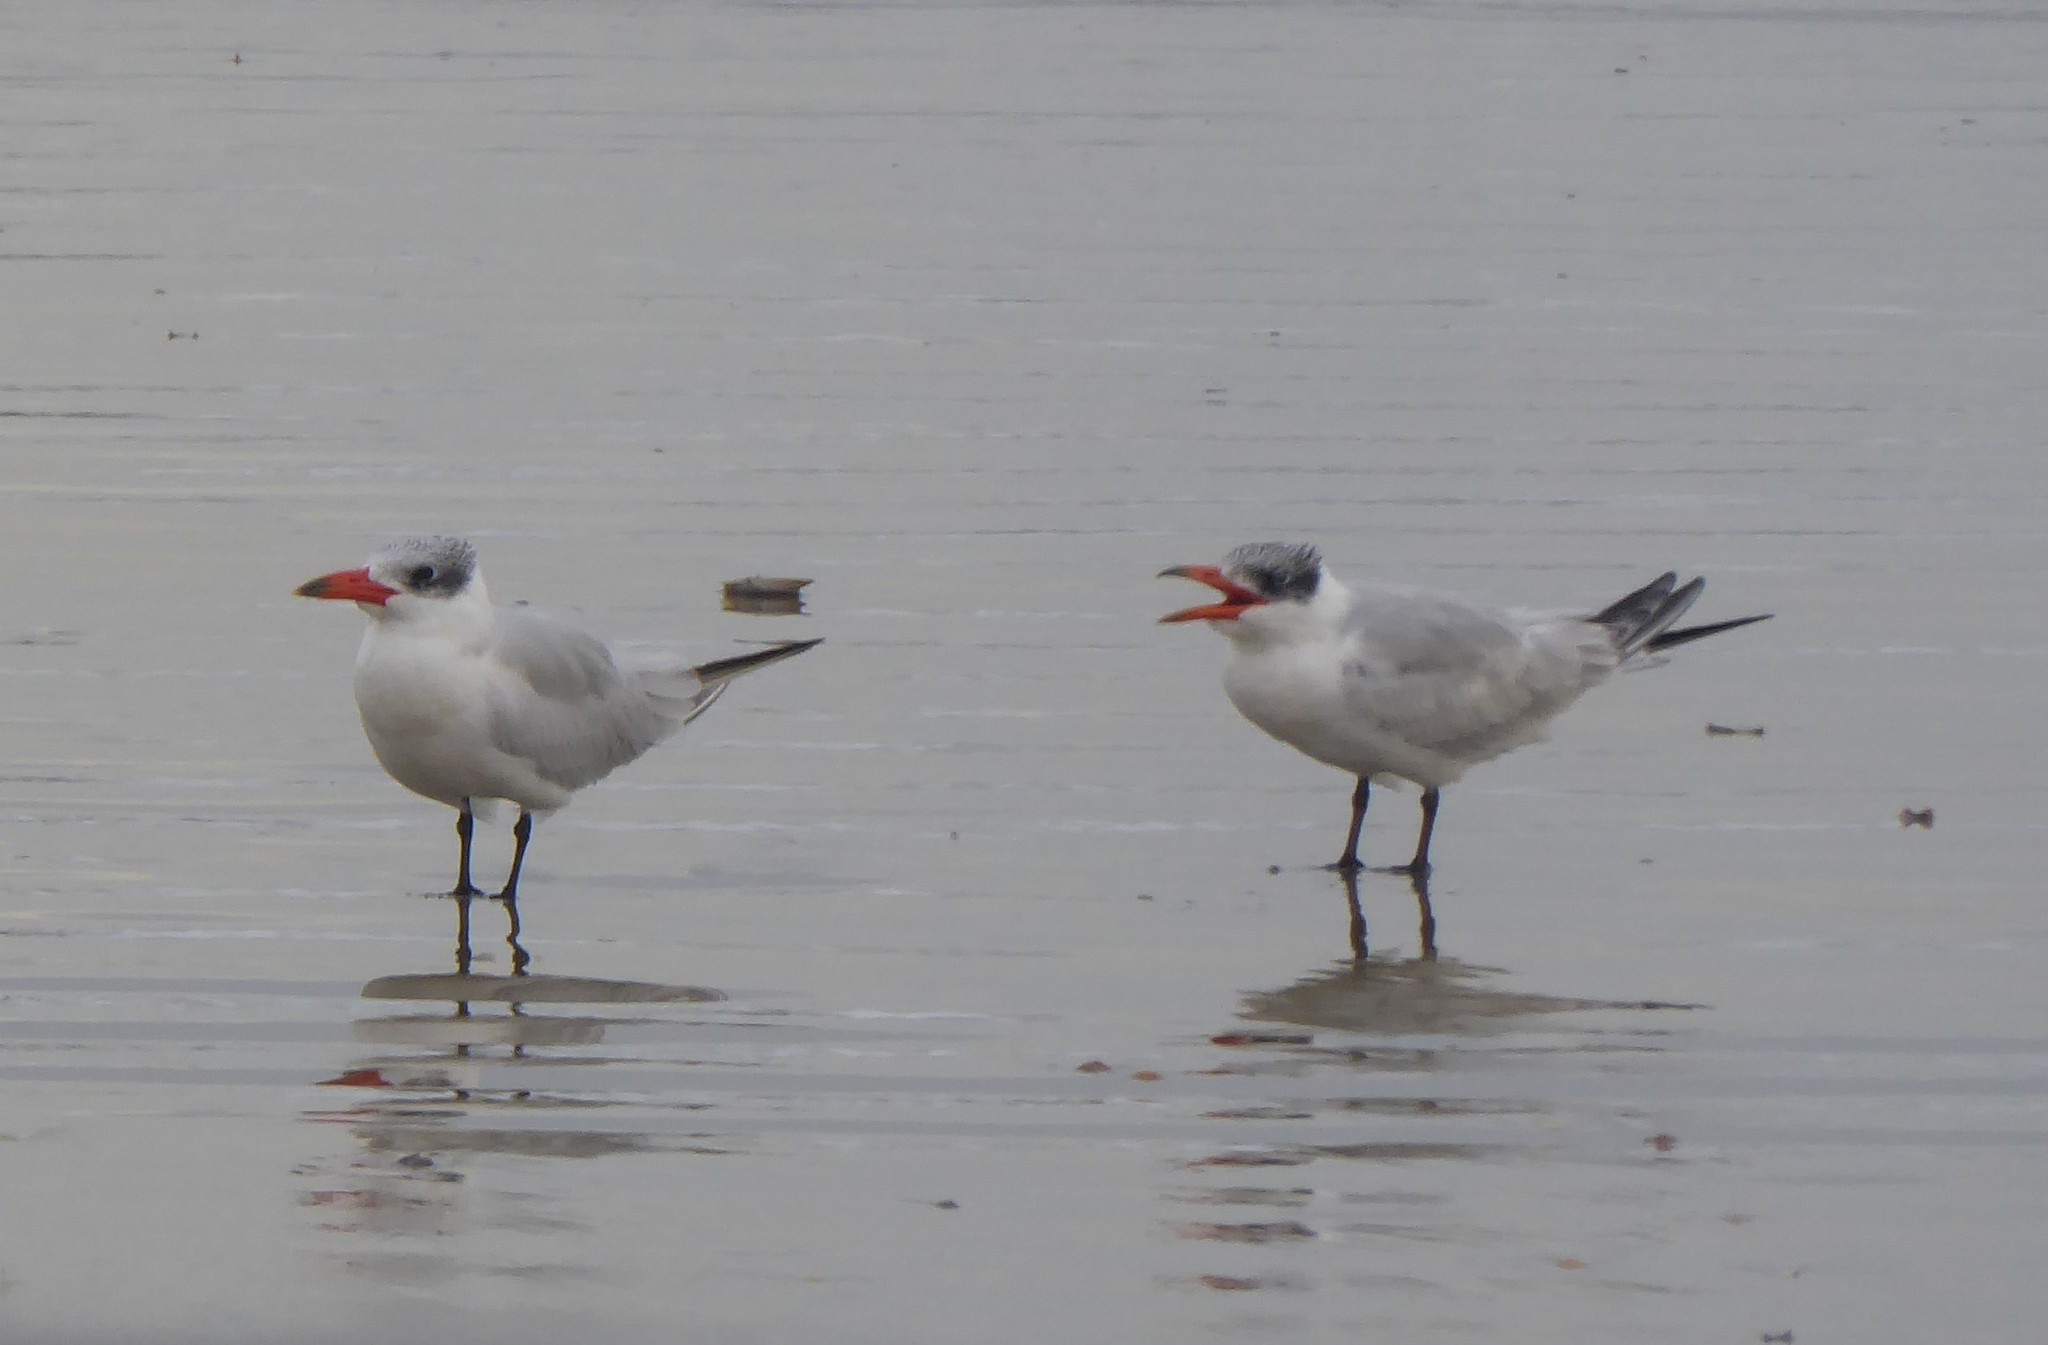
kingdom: Animalia
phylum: Chordata
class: Aves
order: Charadriiformes
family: Laridae
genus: Hydroprogne
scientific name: Hydroprogne caspia
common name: Caspian tern
